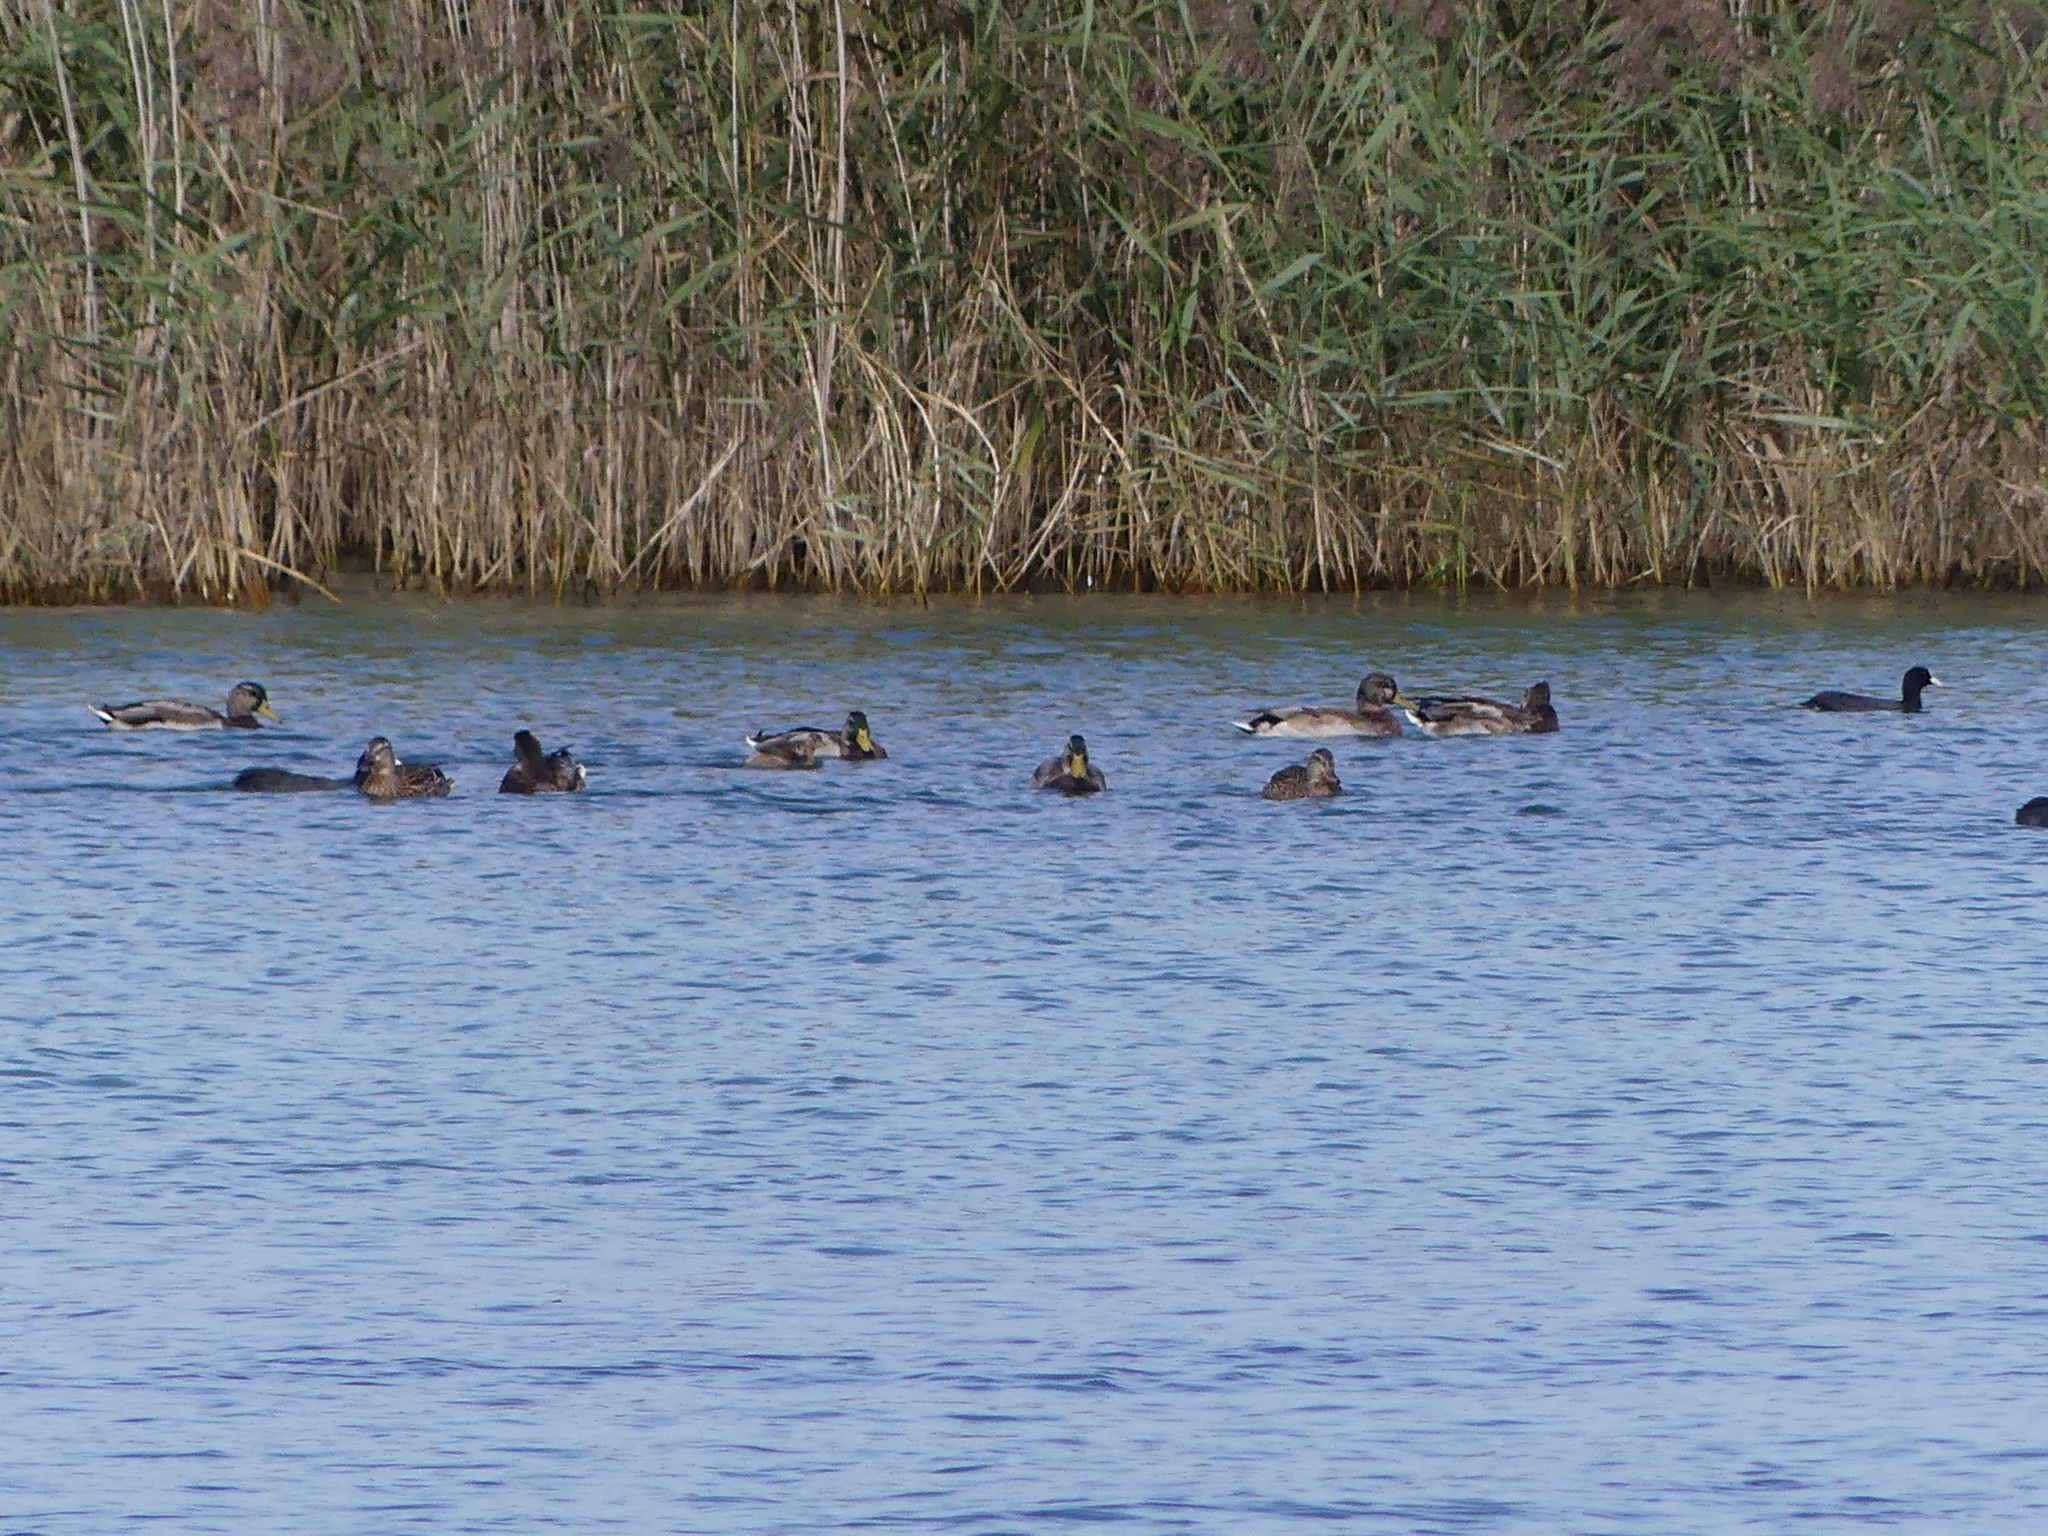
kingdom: Animalia
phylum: Chordata
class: Aves
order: Anseriformes
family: Anatidae
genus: Anas
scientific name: Anas platyrhynchos
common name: Mallard
